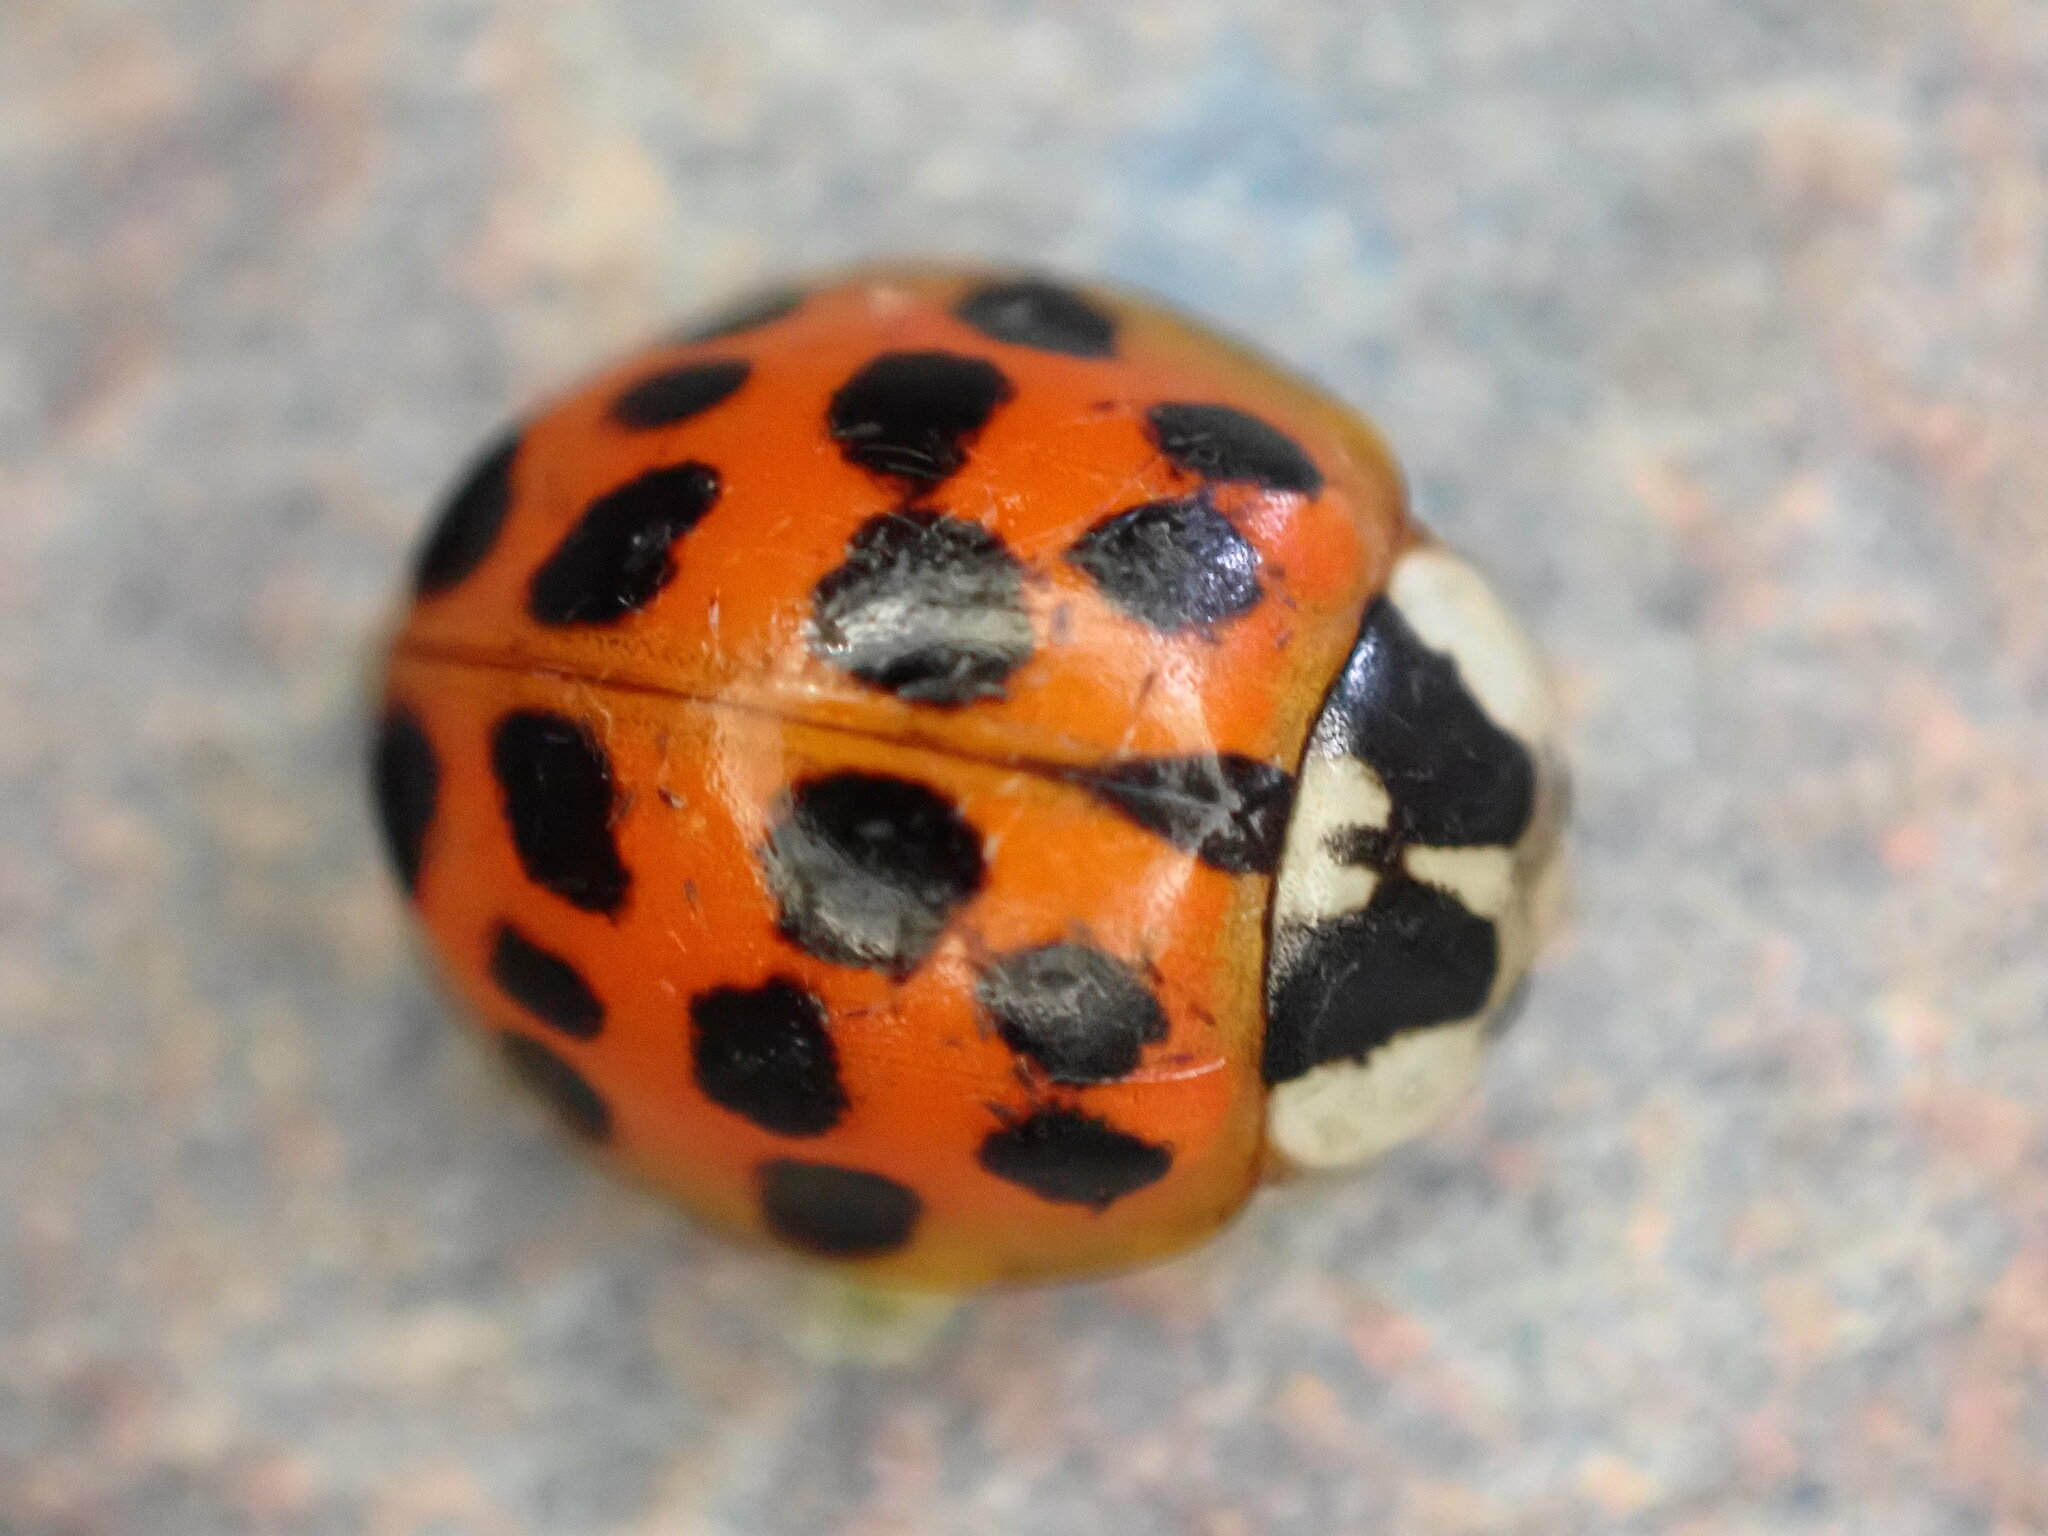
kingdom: Animalia
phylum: Arthropoda
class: Insecta
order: Coleoptera
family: Coccinellidae
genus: Harmonia
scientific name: Harmonia axyridis
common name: Harlequin ladybird
